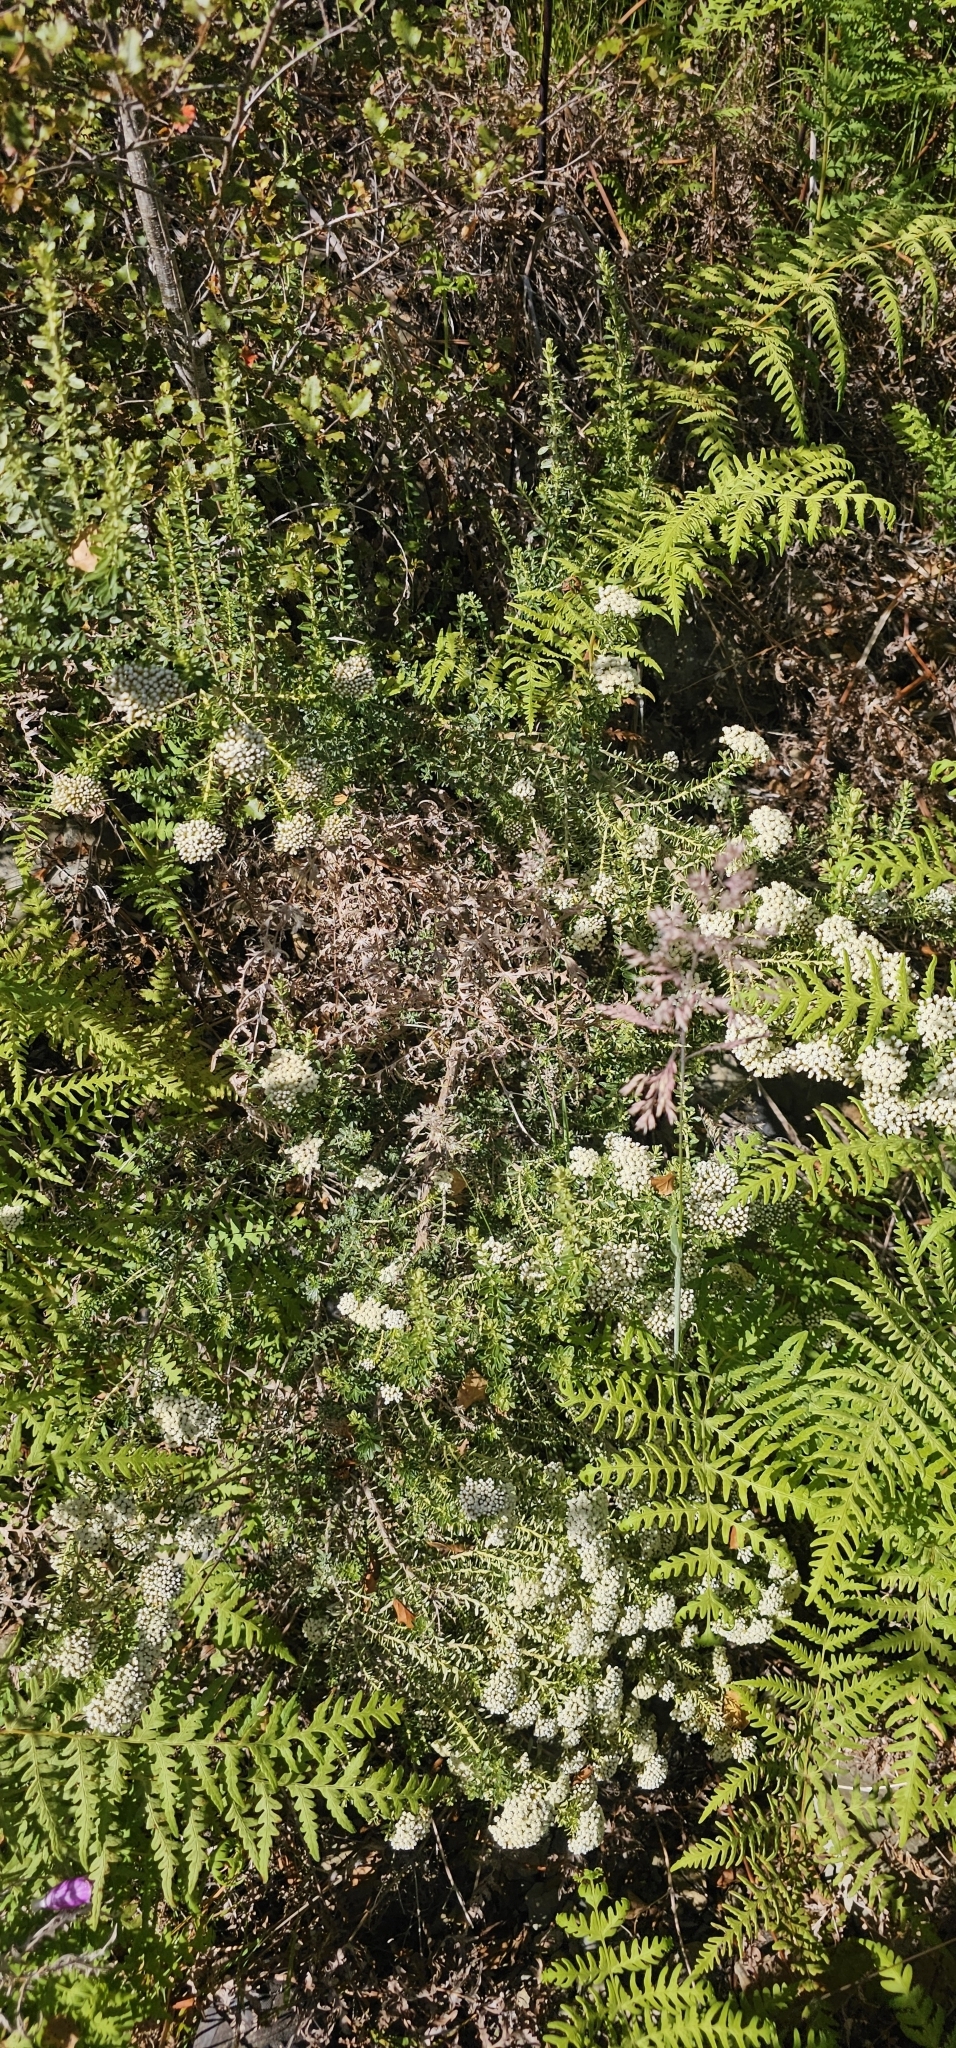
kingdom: Plantae
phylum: Tracheophyta
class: Magnoliopsida
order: Asterales
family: Asteraceae
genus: Ozothamnus
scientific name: Ozothamnus leptophyllus
